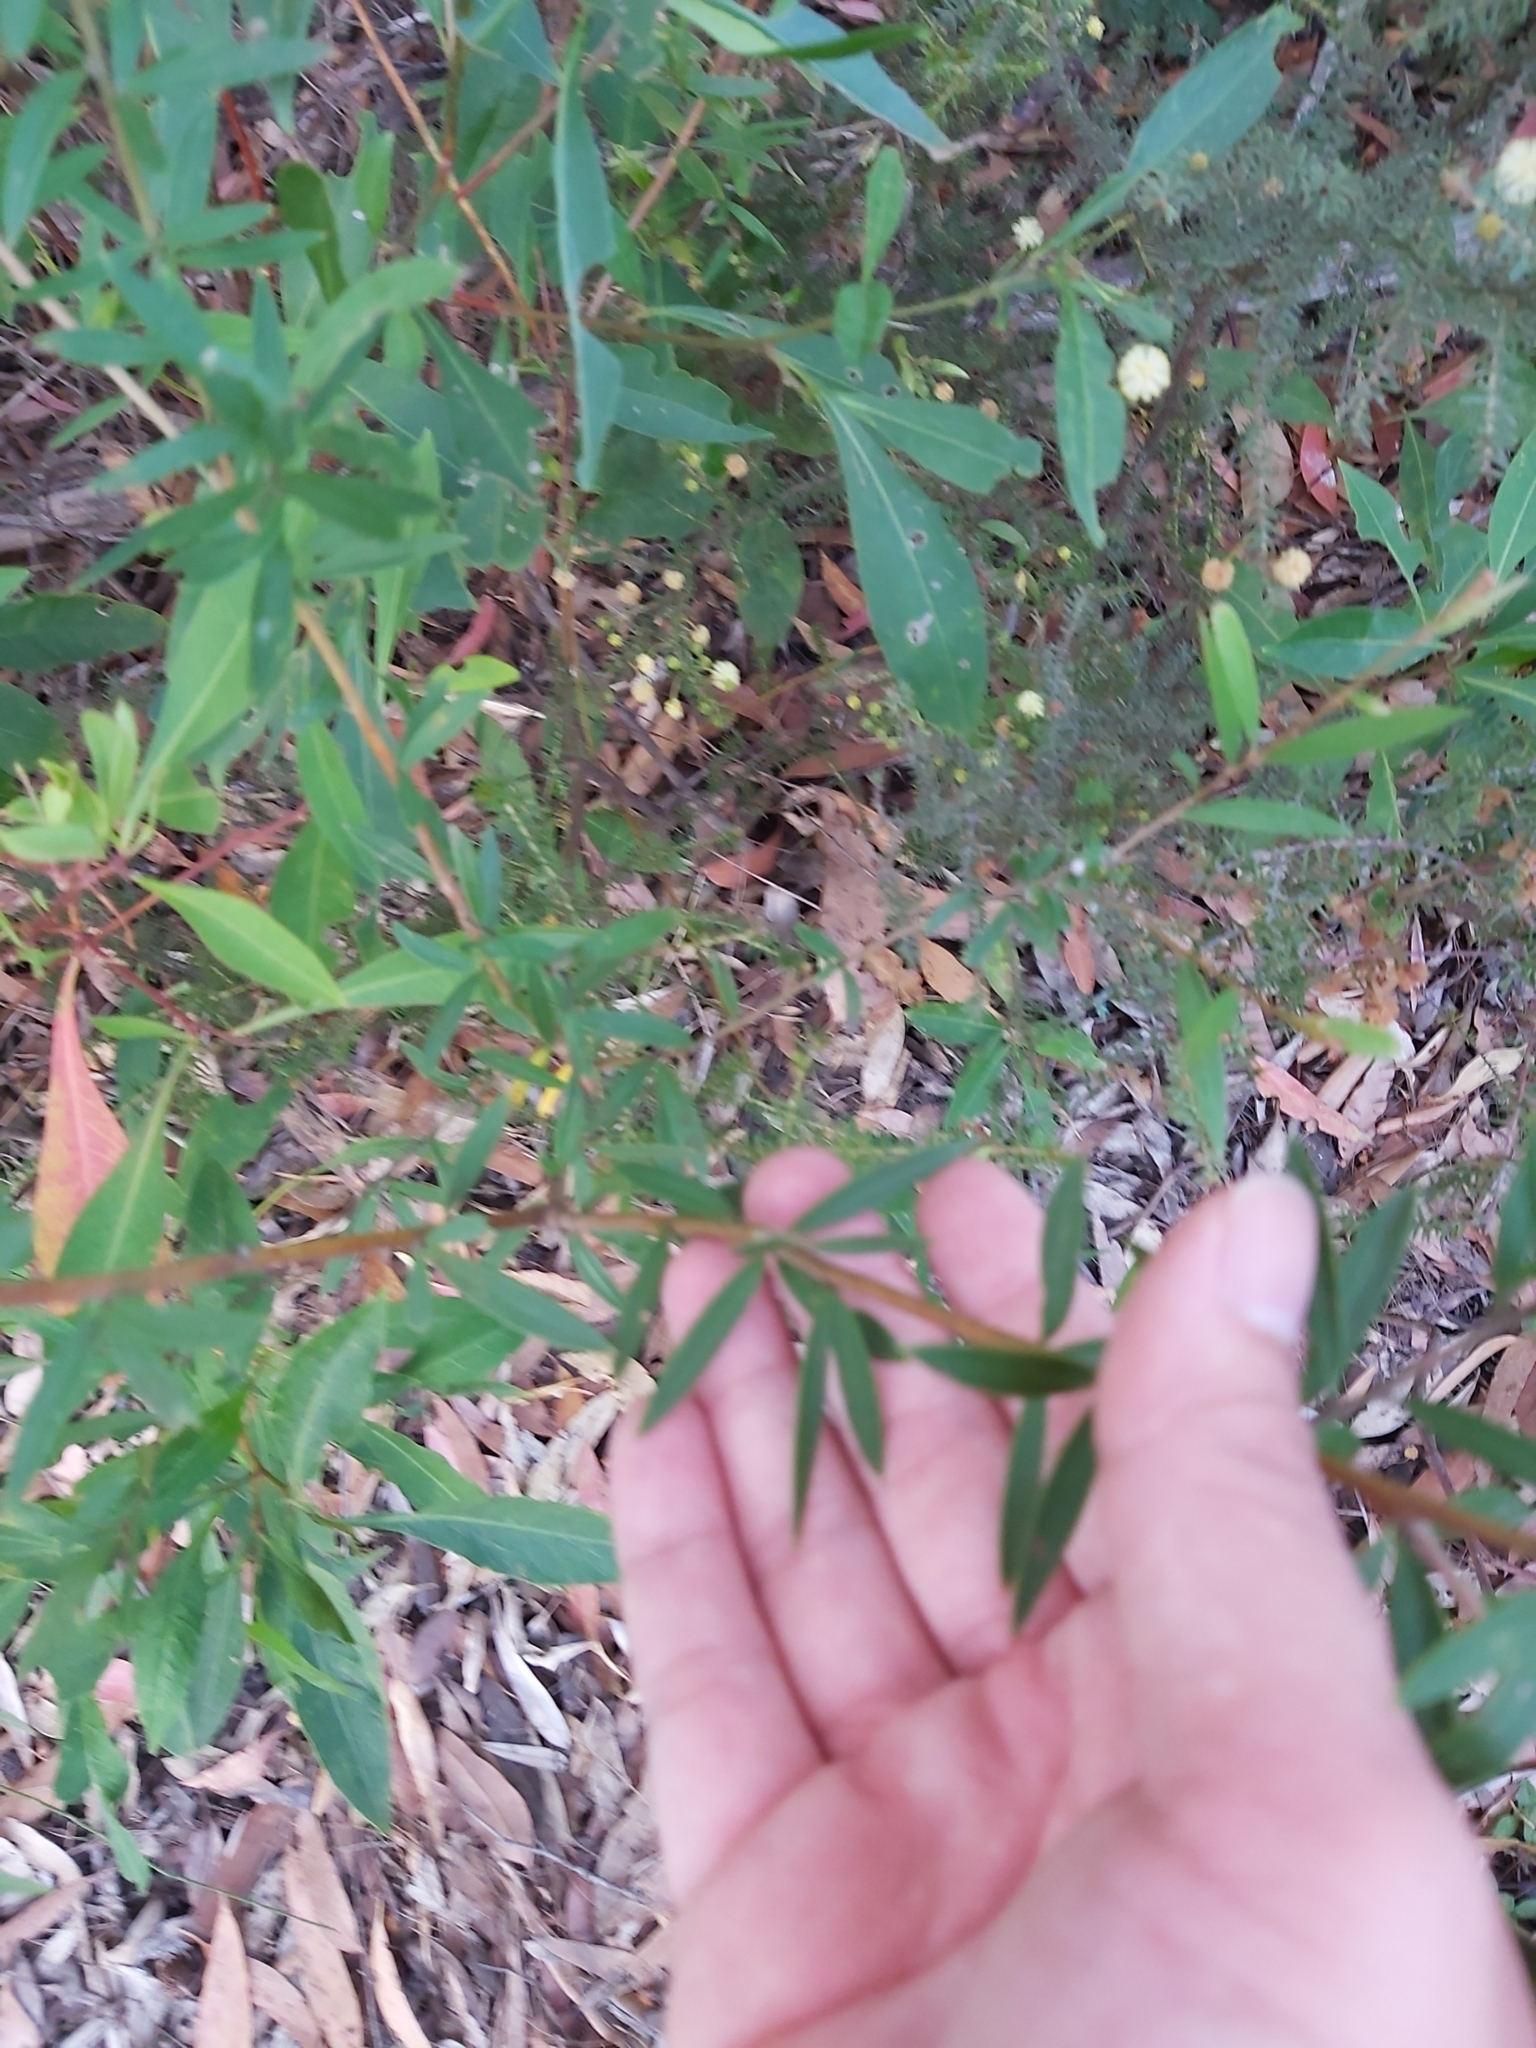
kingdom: Plantae
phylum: Tracheophyta
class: Magnoliopsida
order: Proteales
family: Proteaceae
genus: Grevillea
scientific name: Grevillea sericea
